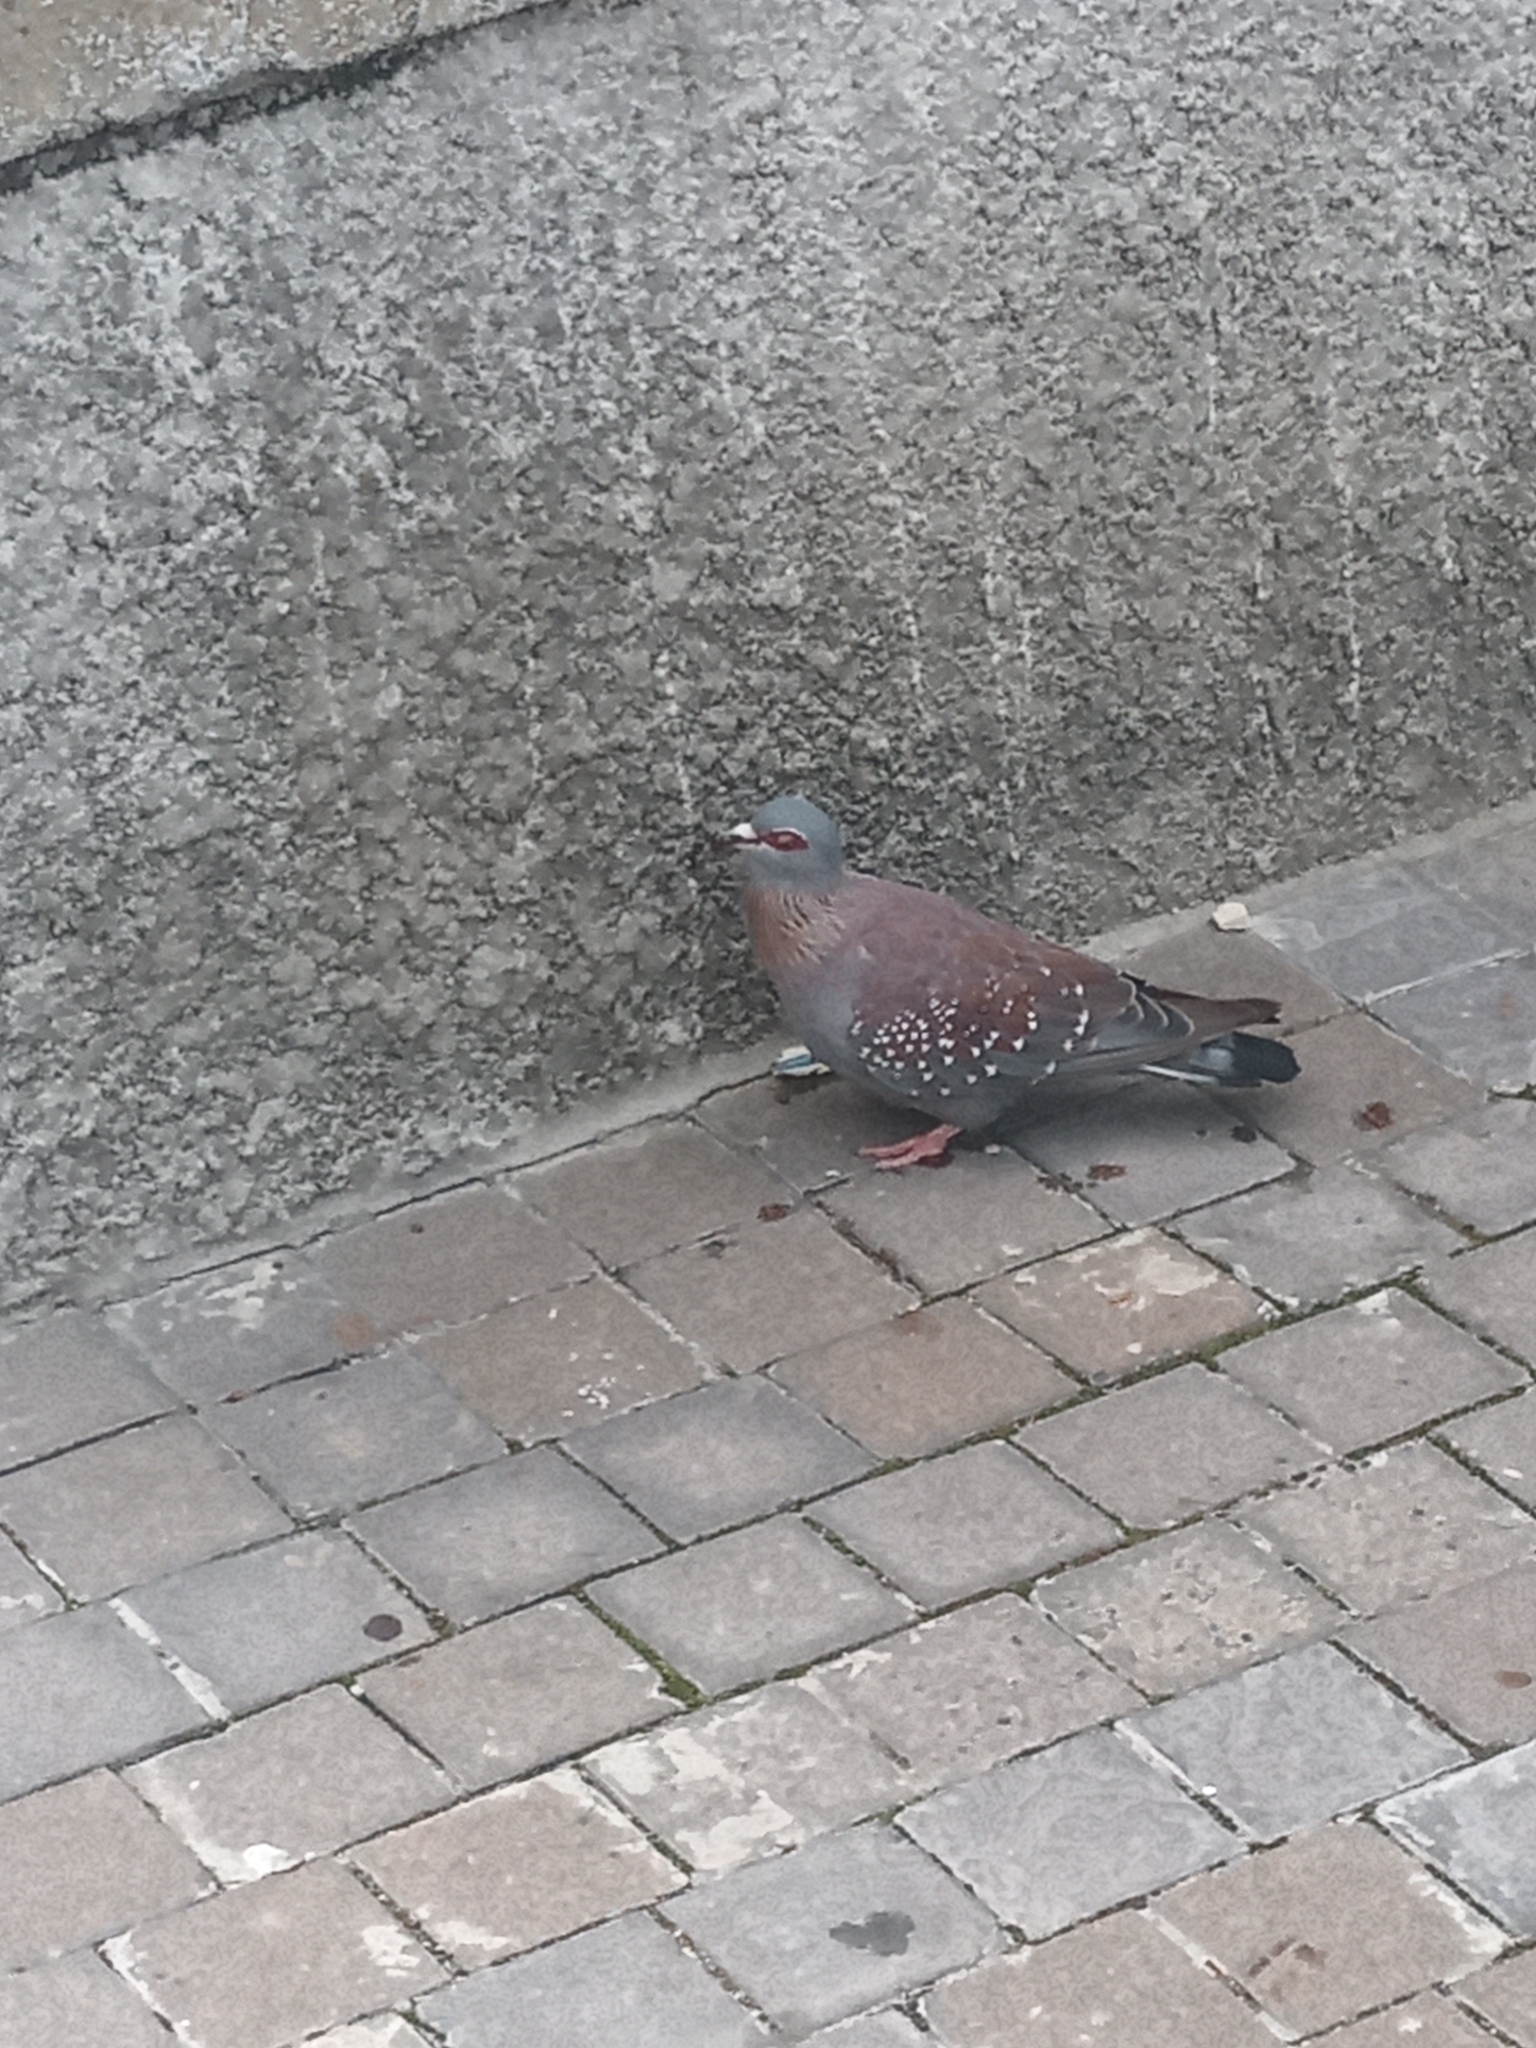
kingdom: Animalia
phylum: Chordata
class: Aves
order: Columbiformes
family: Columbidae
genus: Columba
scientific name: Columba guinea
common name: Speckled pigeon
